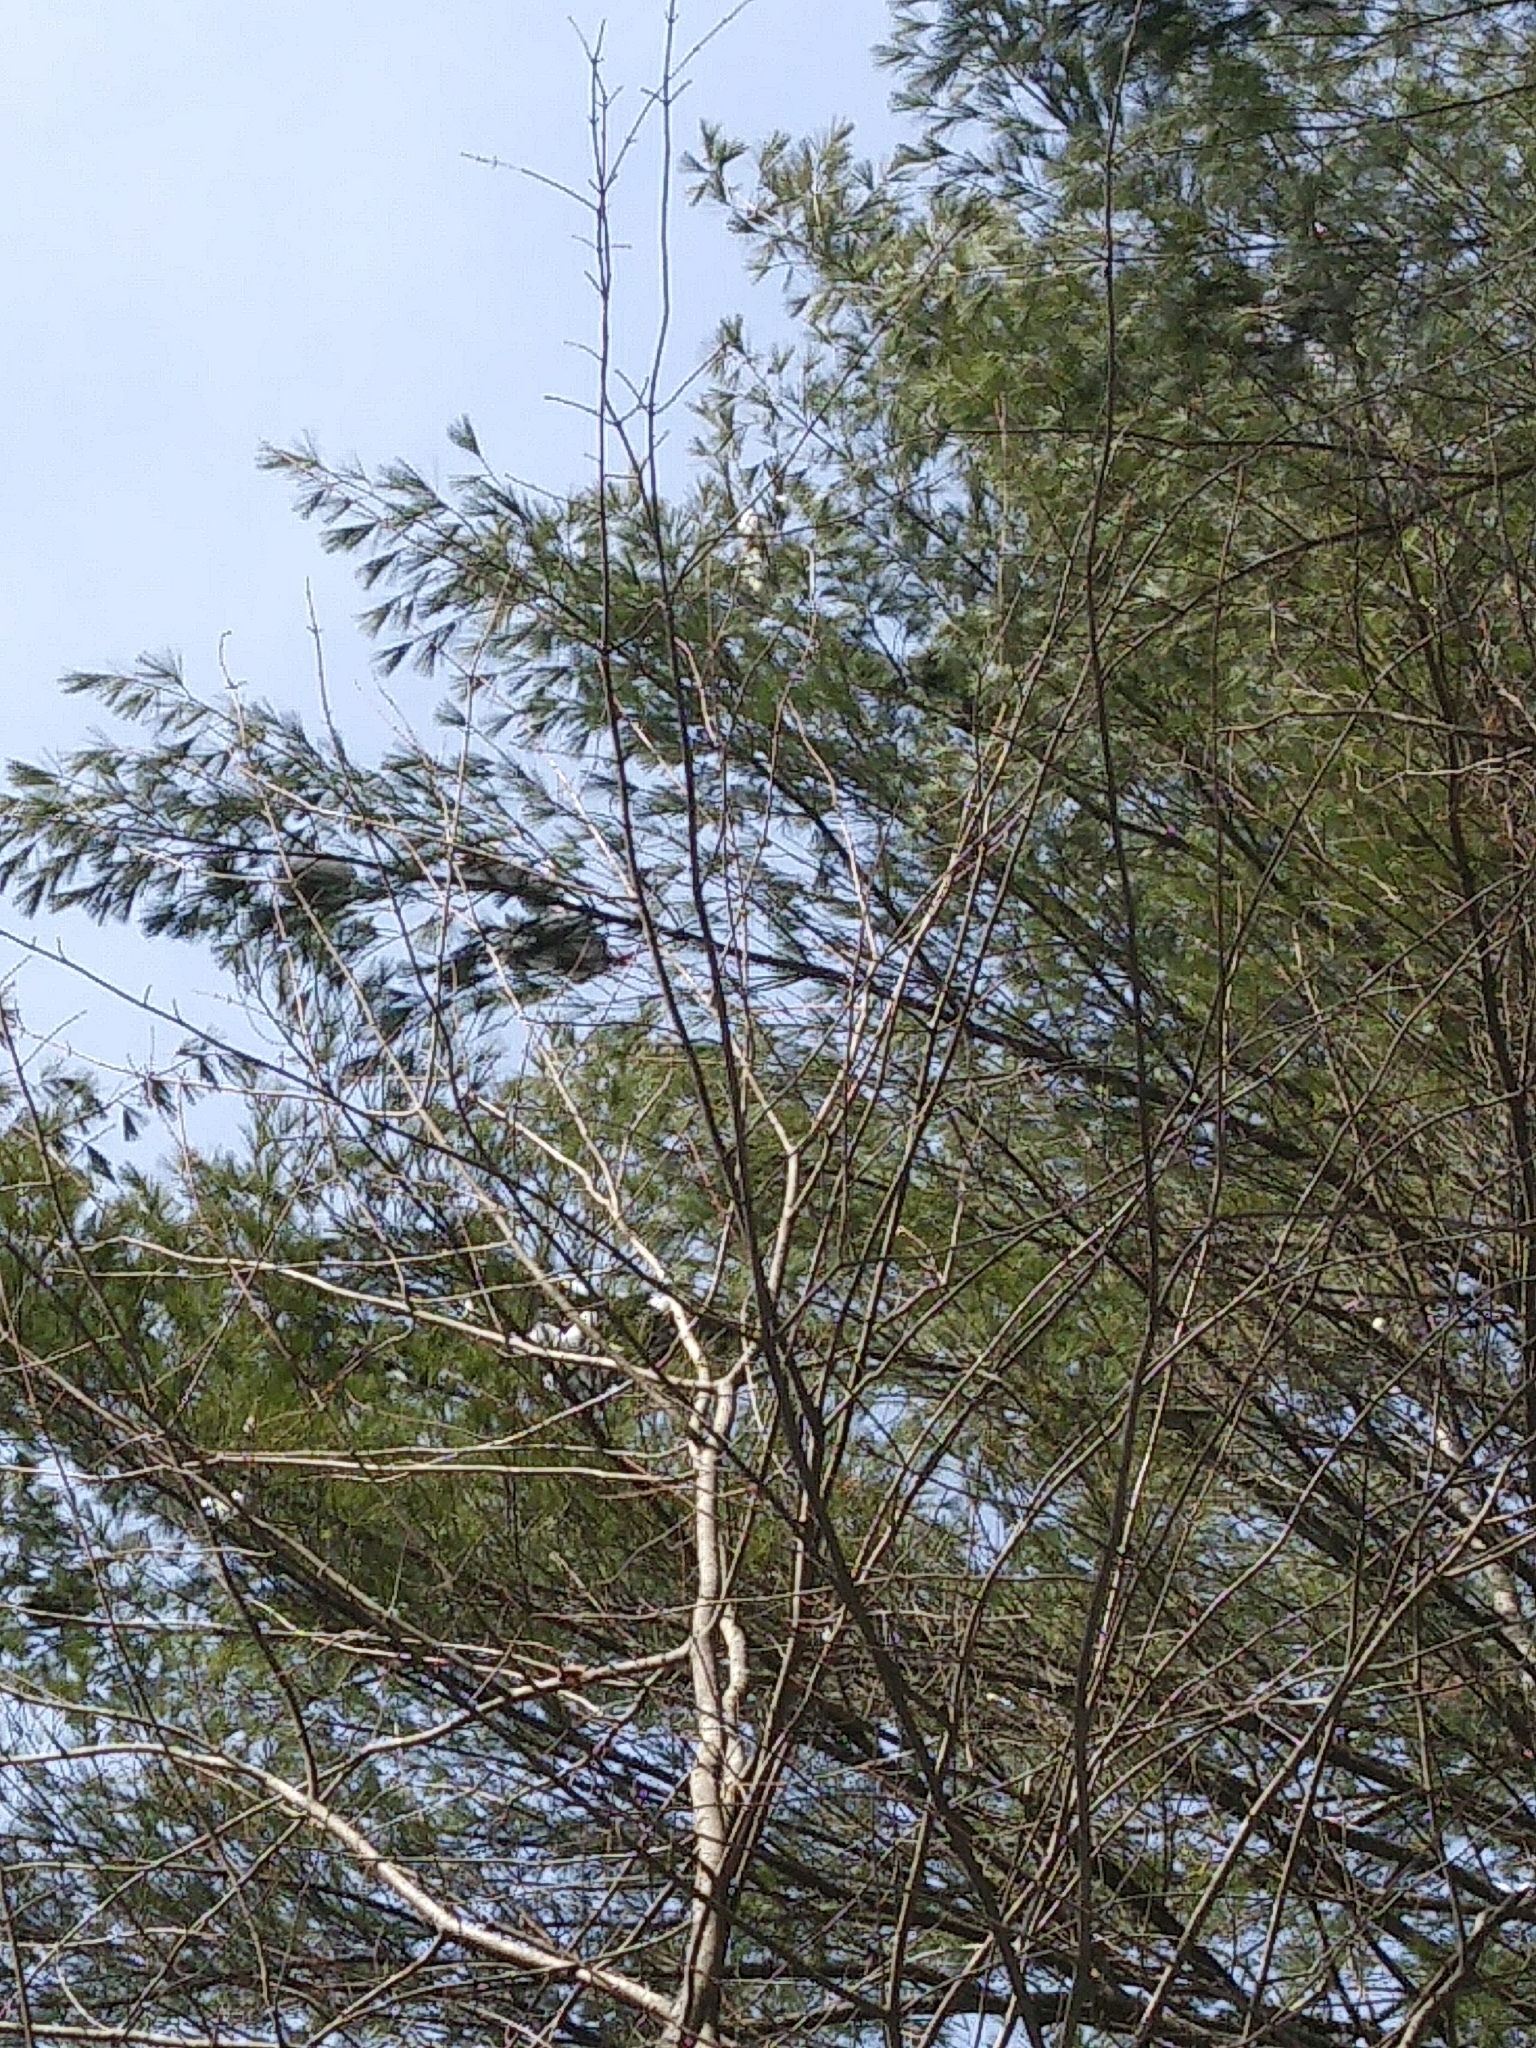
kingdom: Plantae
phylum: Tracheophyta
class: Magnoliopsida
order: Sapindales
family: Sapindaceae
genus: Acer
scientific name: Acer rubrum
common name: Red maple
